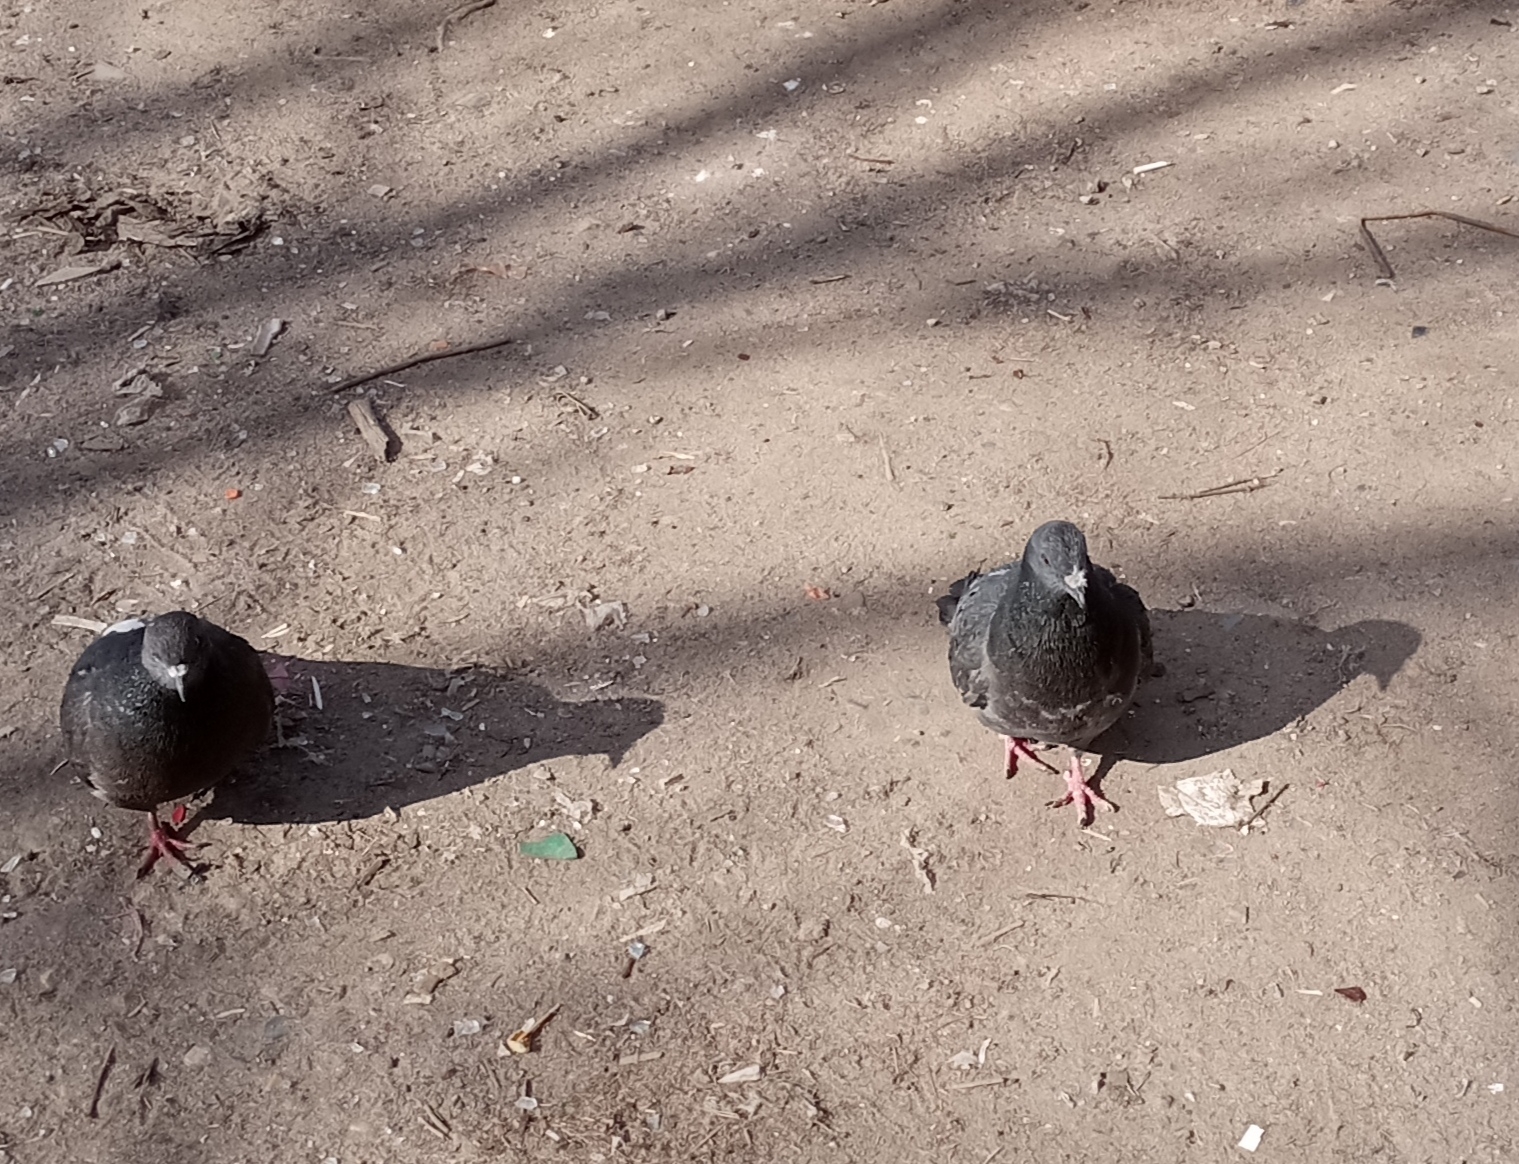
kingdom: Animalia
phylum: Chordata
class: Aves
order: Columbiformes
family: Columbidae
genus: Columba
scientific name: Columba livia
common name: Rock pigeon
